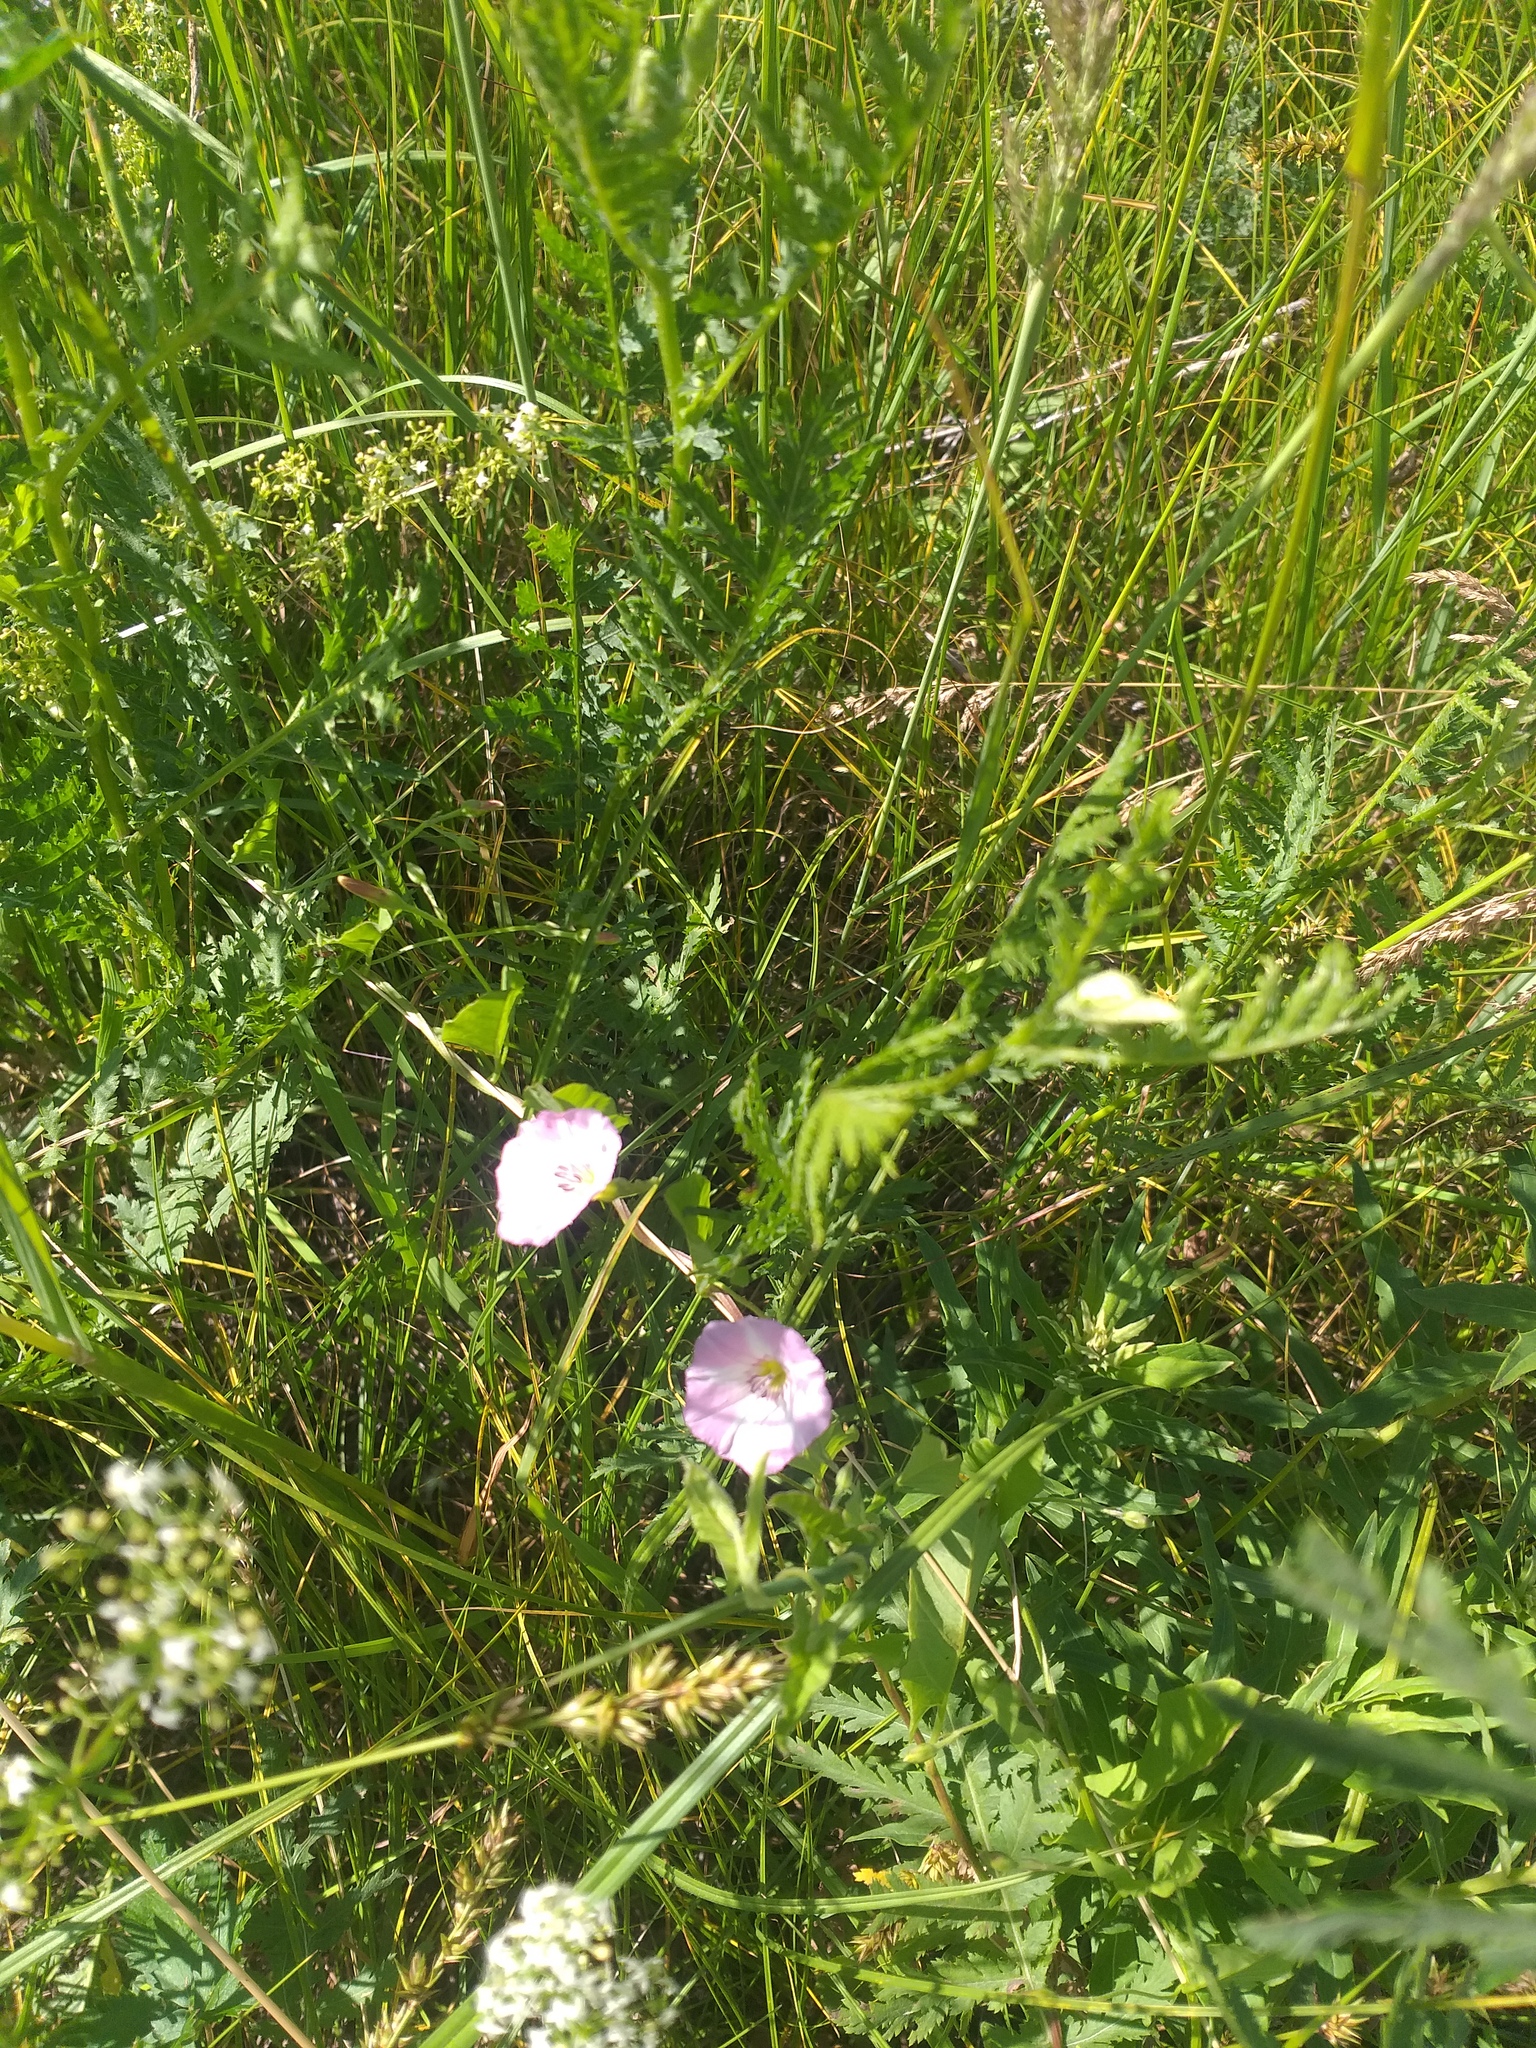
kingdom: Plantae
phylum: Tracheophyta
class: Magnoliopsida
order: Solanales
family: Convolvulaceae
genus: Convolvulus
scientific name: Convolvulus arvensis
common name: Field bindweed
